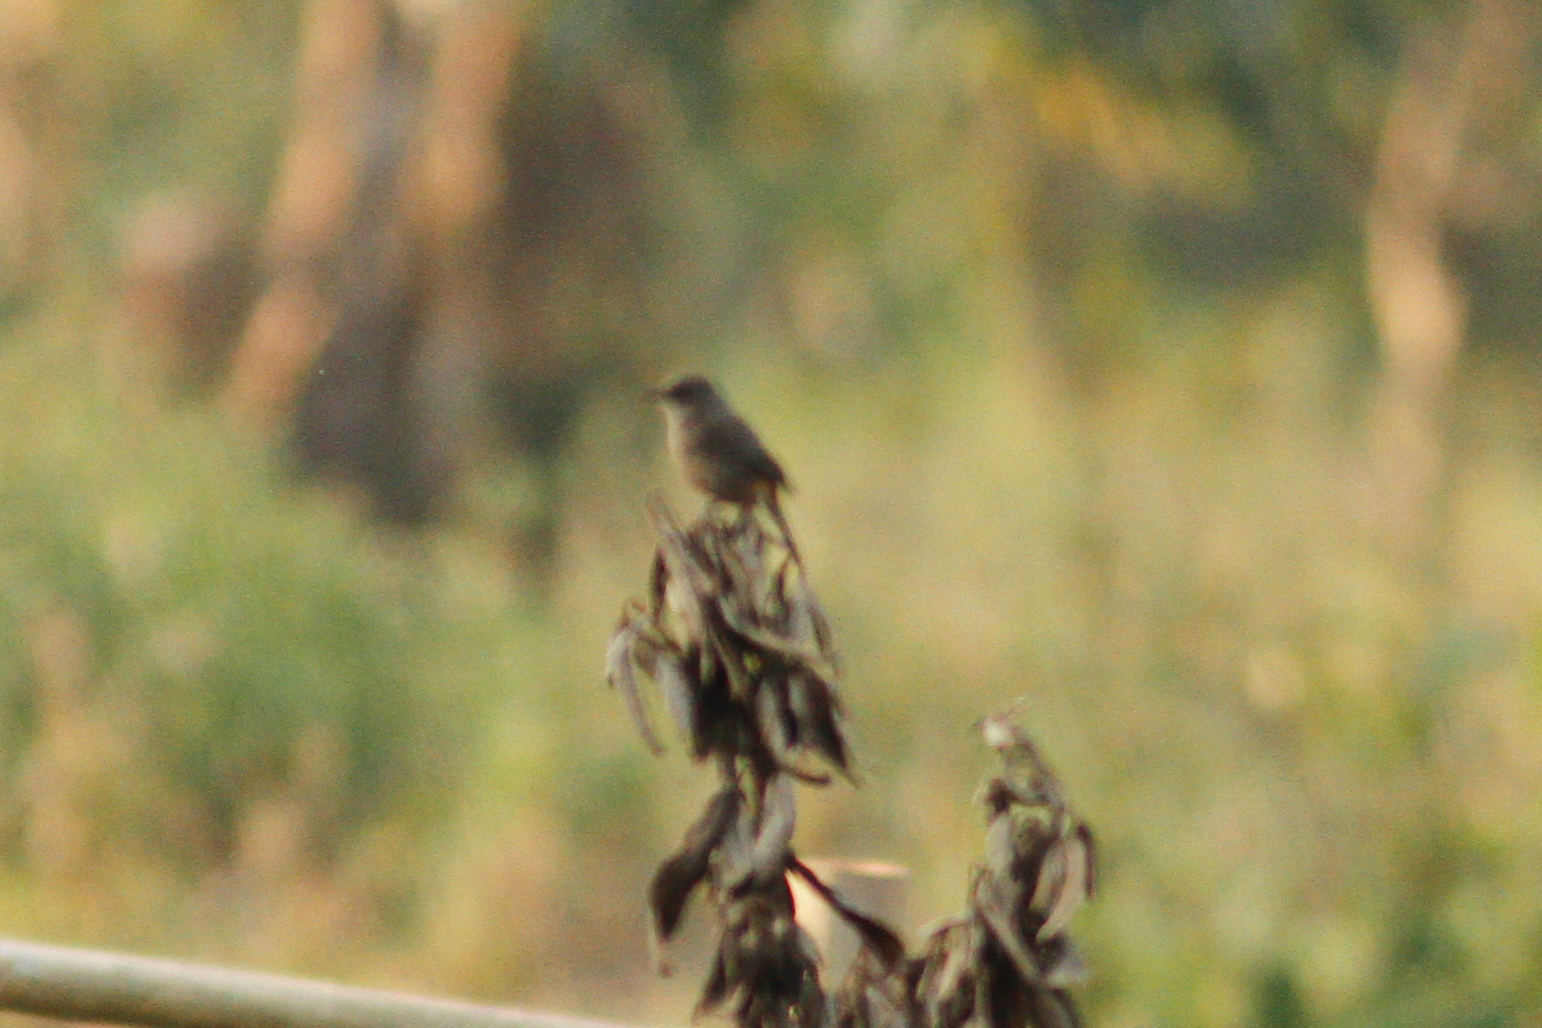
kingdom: Animalia
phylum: Chordata
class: Aves
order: Passeriformes
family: Muscicapidae
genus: Saxicola
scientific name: Saxicola caprata
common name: Pied bush chat
